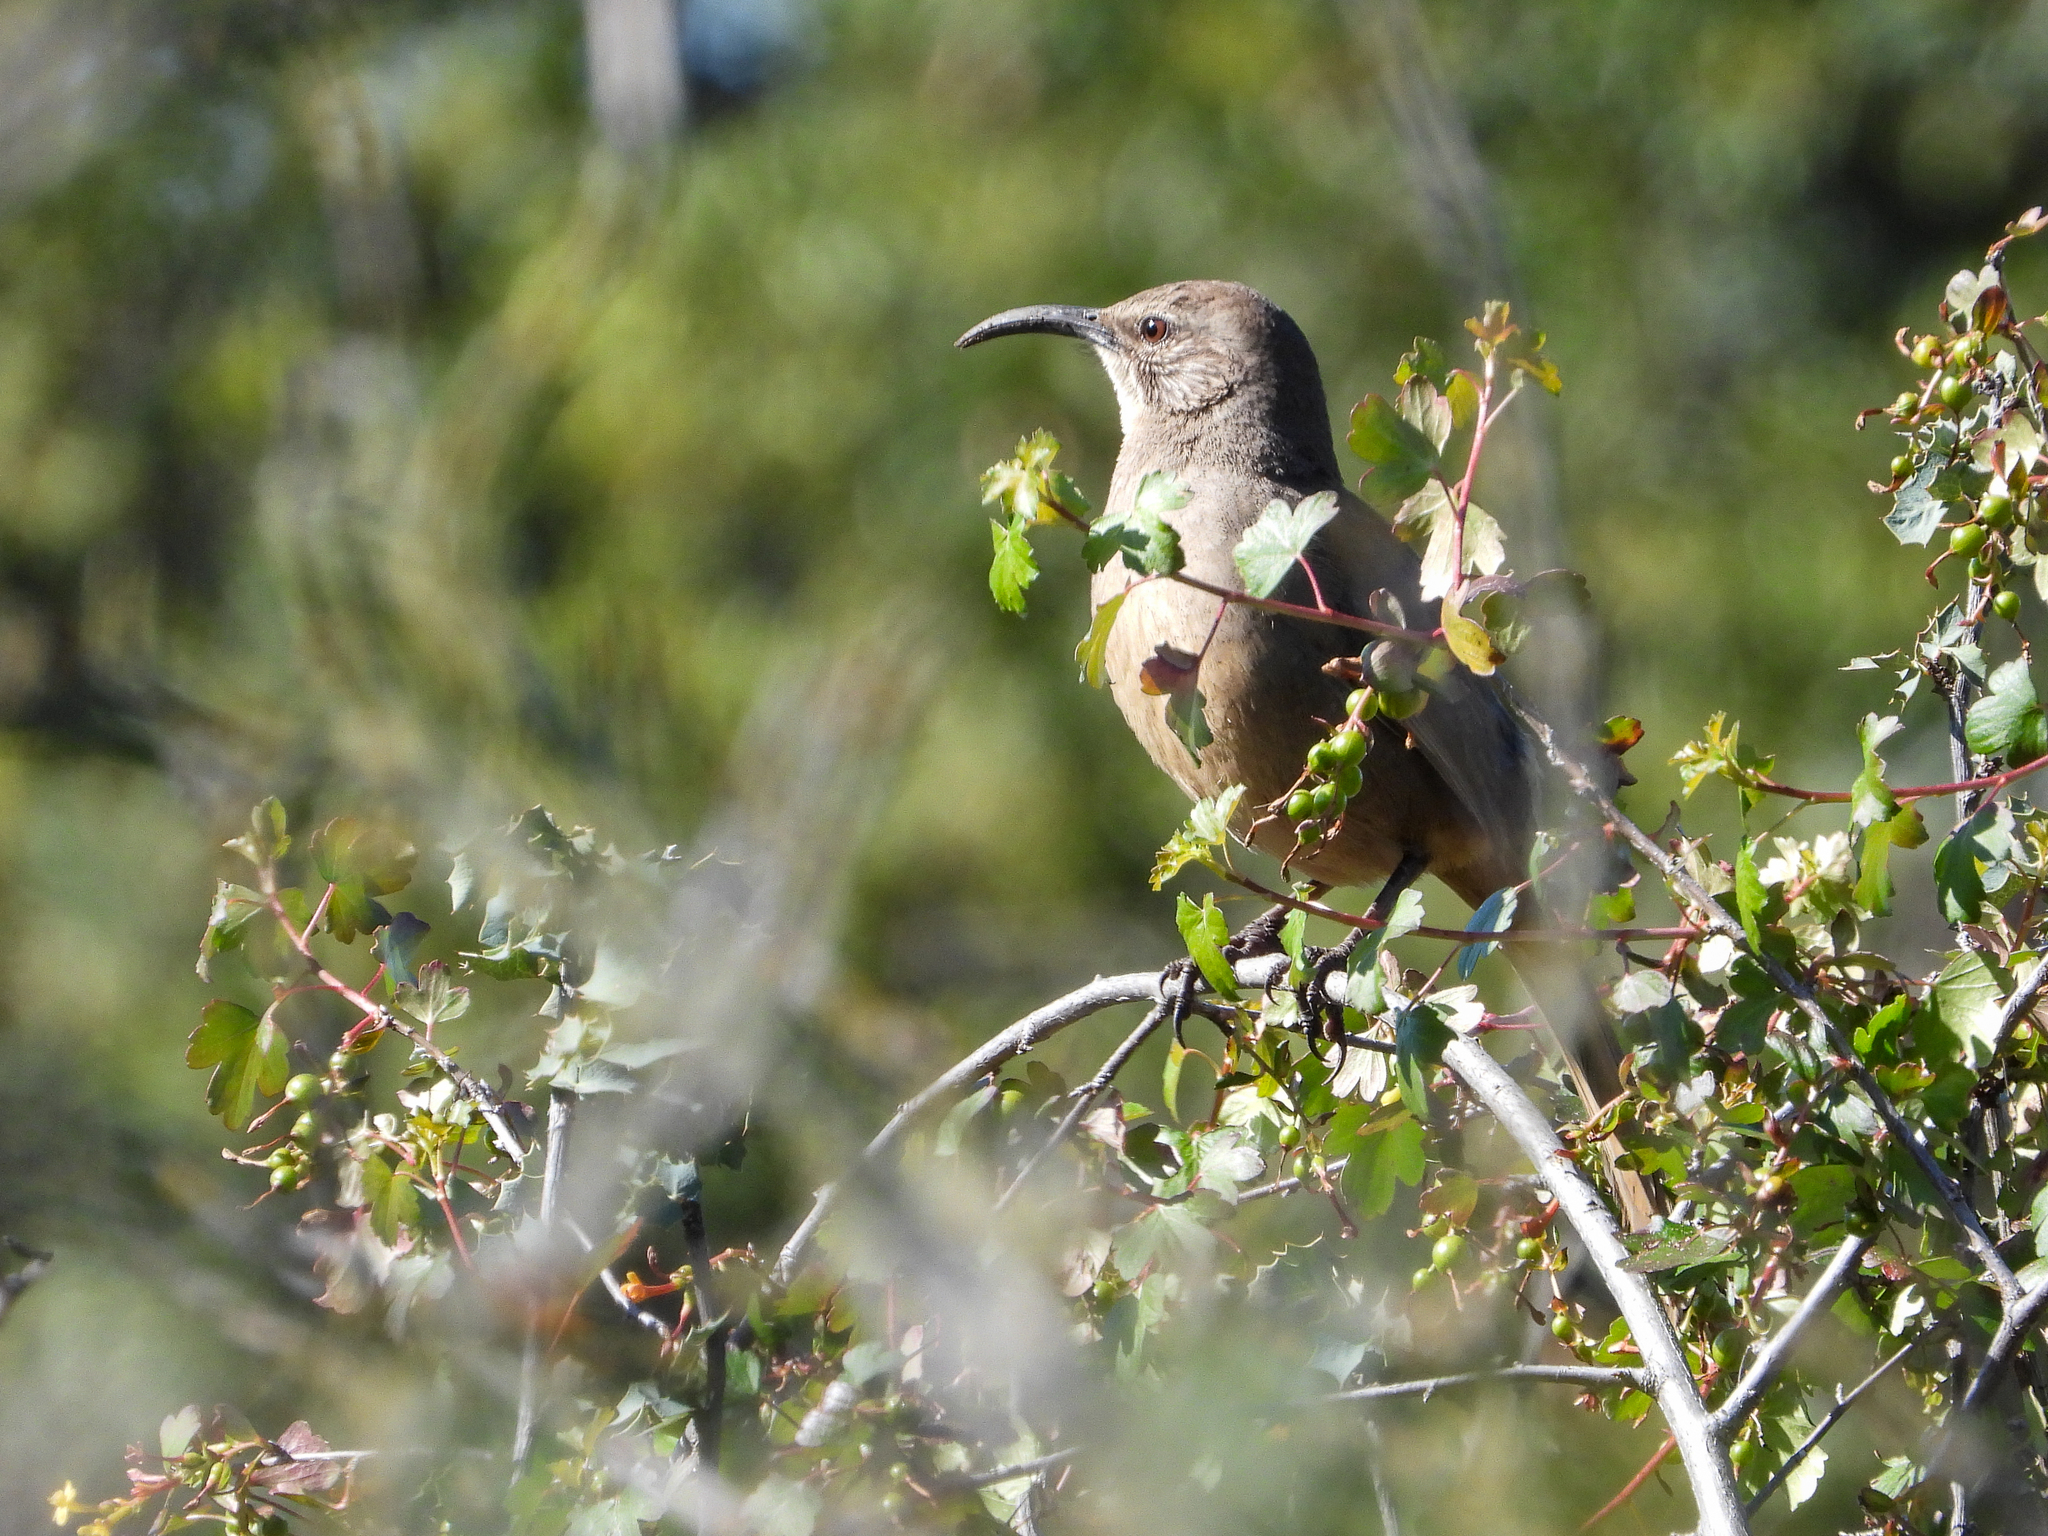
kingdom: Animalia
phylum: Chordata
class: Aves
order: Passeriformes
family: Mimidae
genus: Toxostoma
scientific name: Toxostoma redivivum
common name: California thrasher
